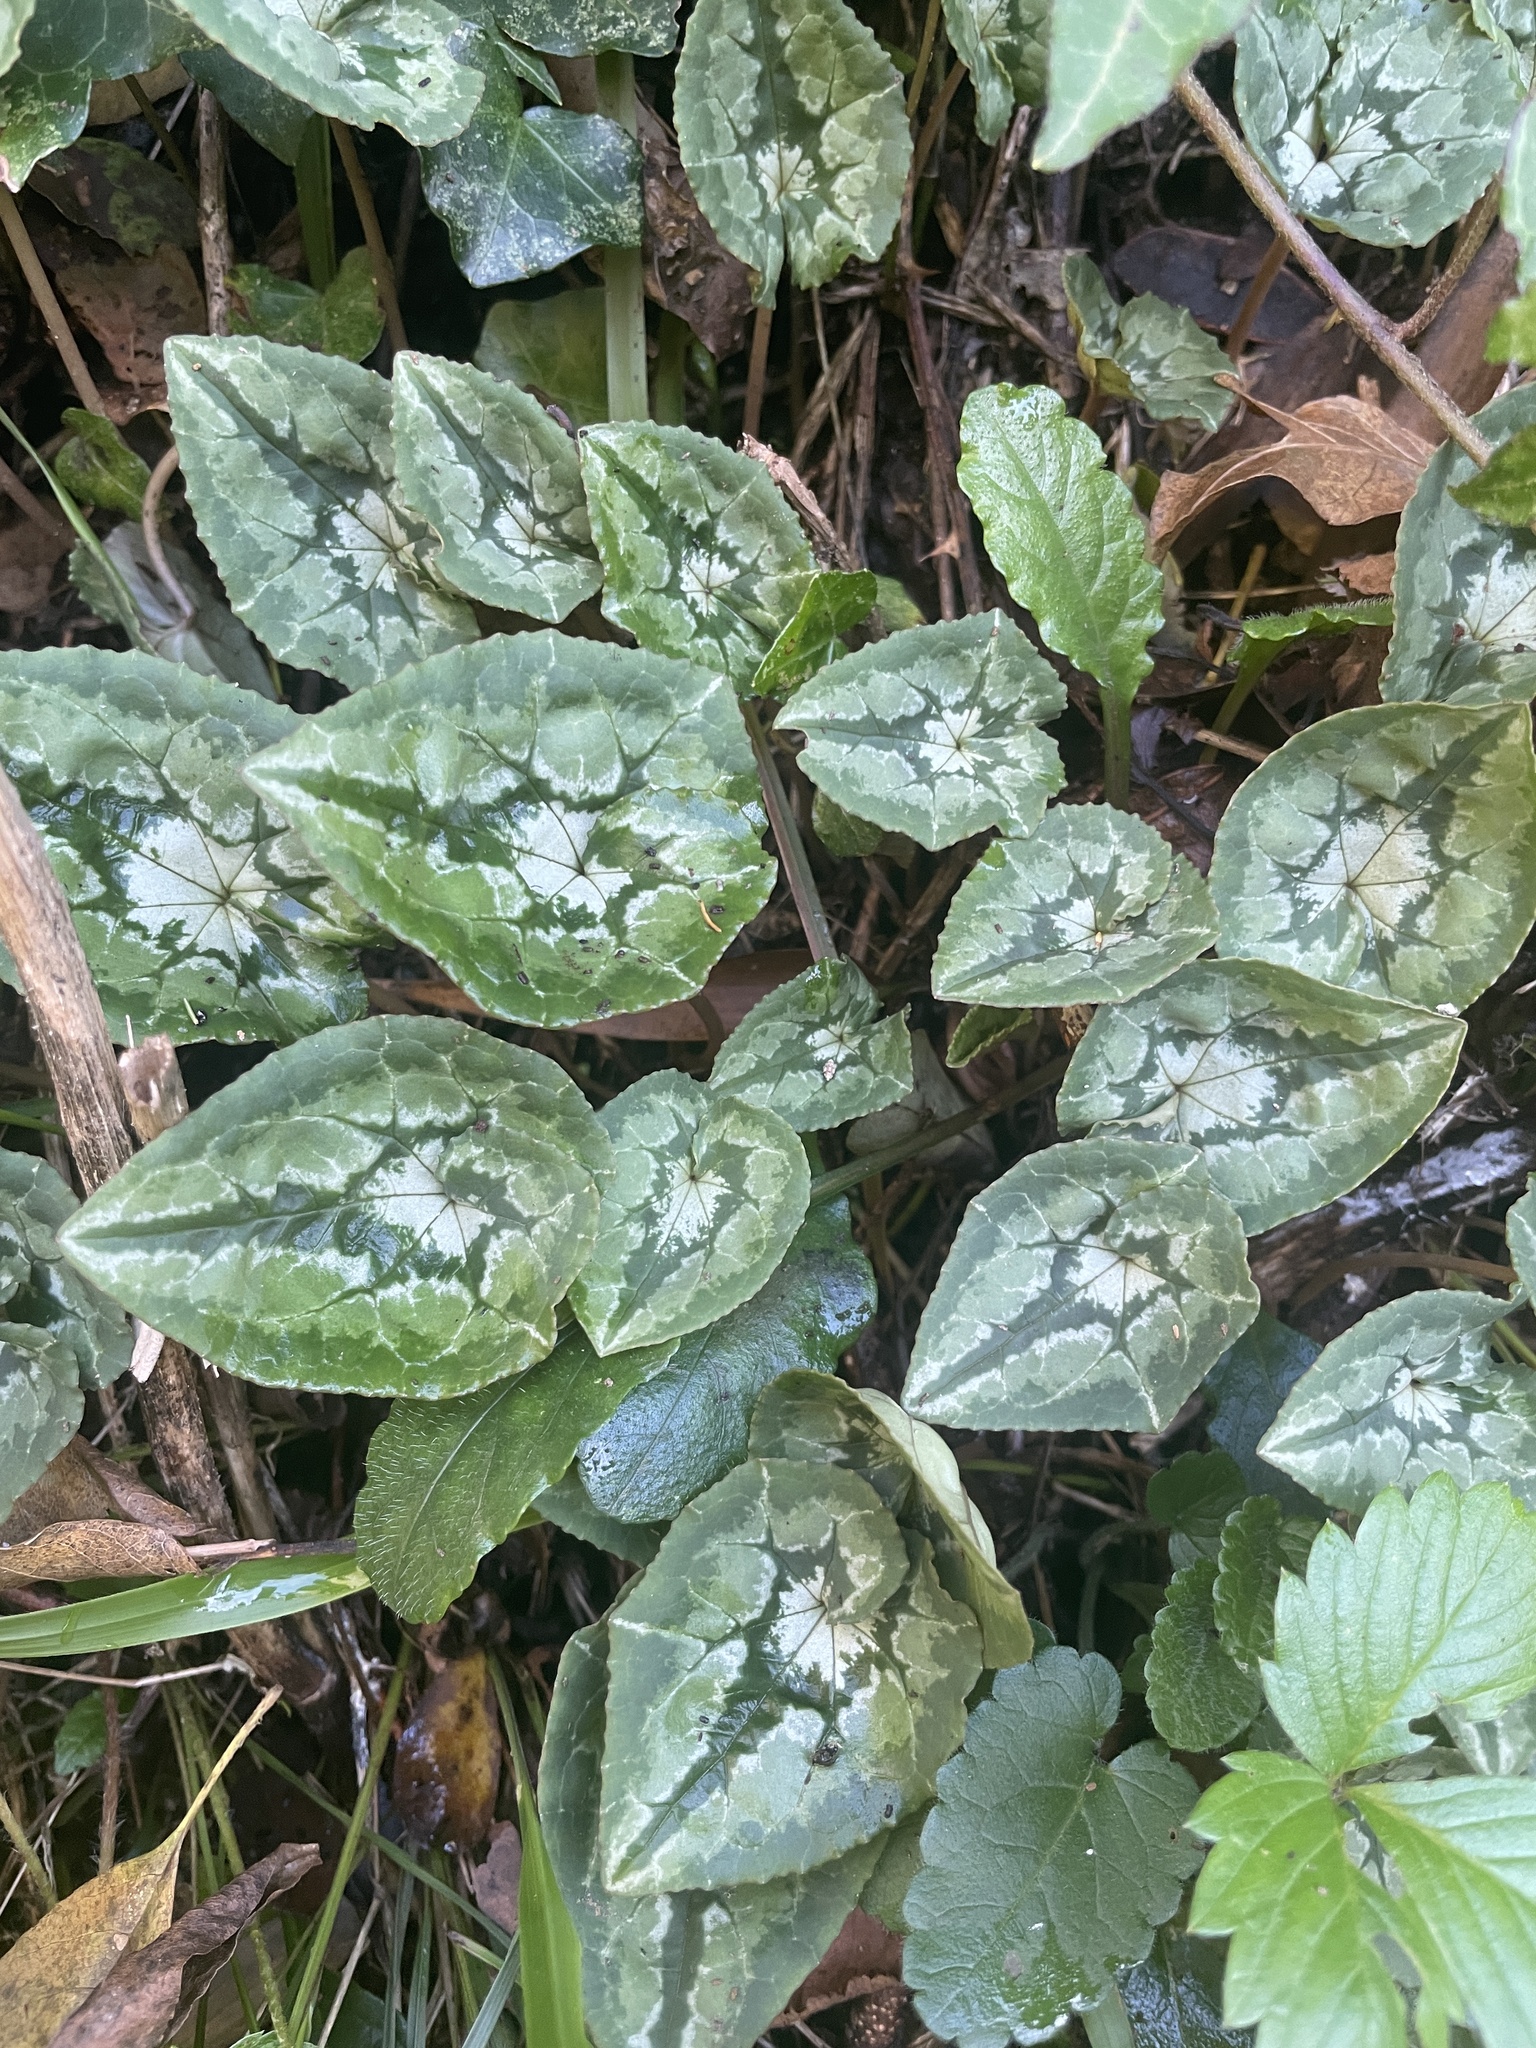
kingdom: Plantae
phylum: Tracheophyta
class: Magnoliopsida
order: Ericales
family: Primulaceae
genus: Cyclamen
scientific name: Cyclamen hederifolium
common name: Sowbread
